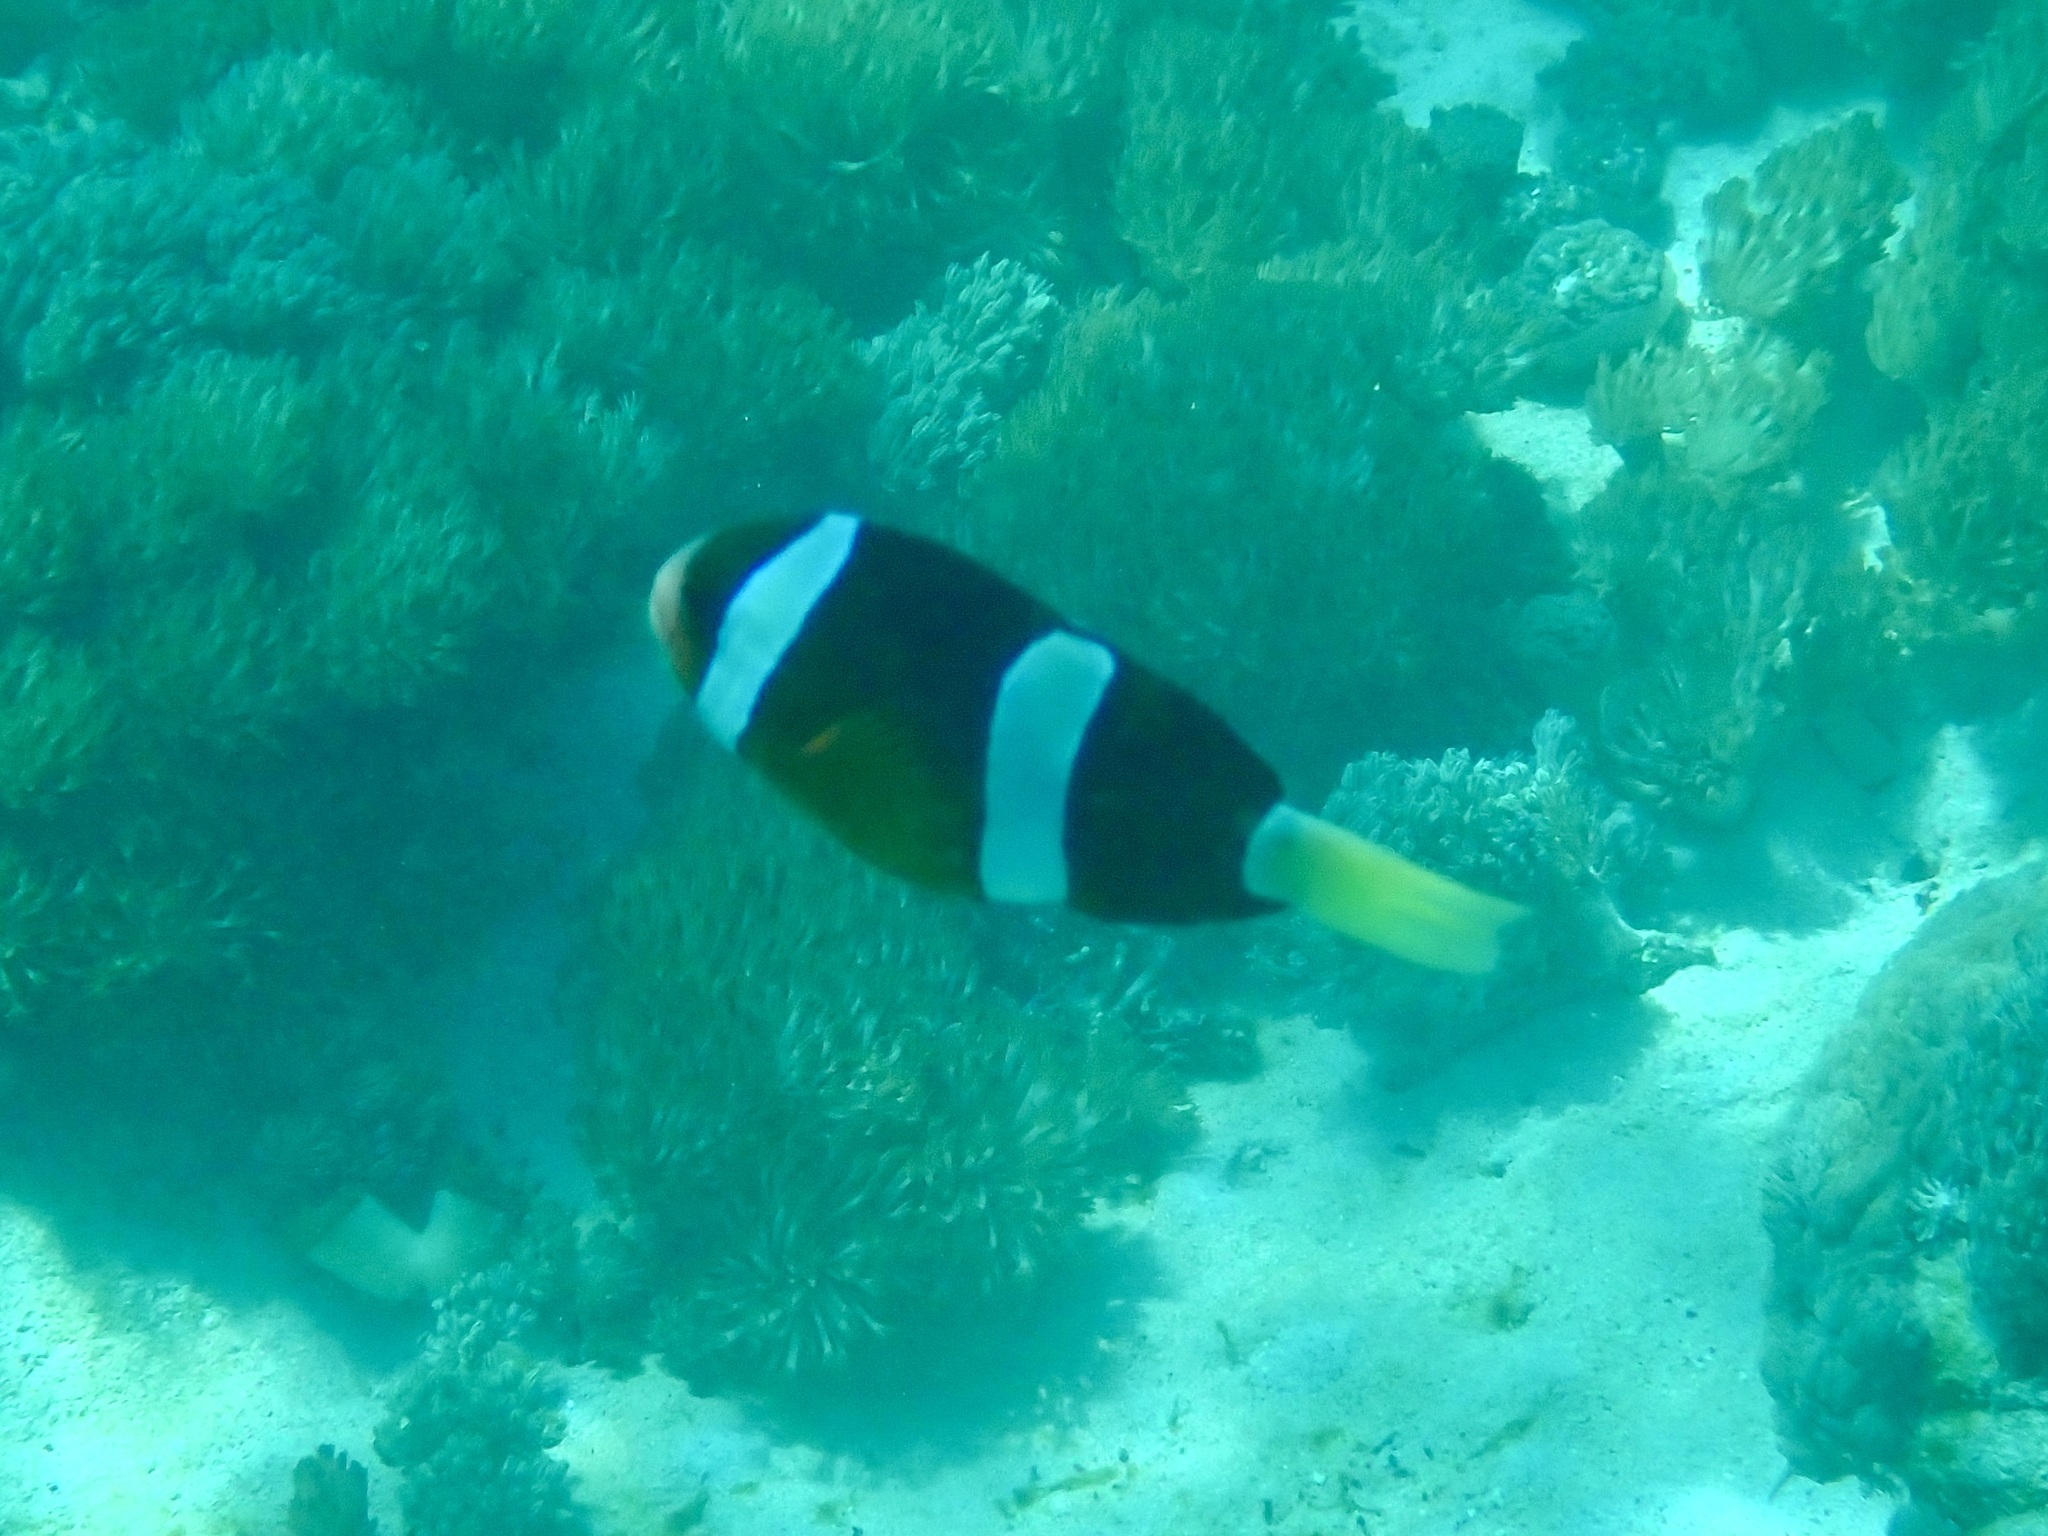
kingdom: Animalia
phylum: Chordata
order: Perciformes
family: Pomacentridae
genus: Amphiprion
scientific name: Amphiprion clarkii
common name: Clark's anemonefish
